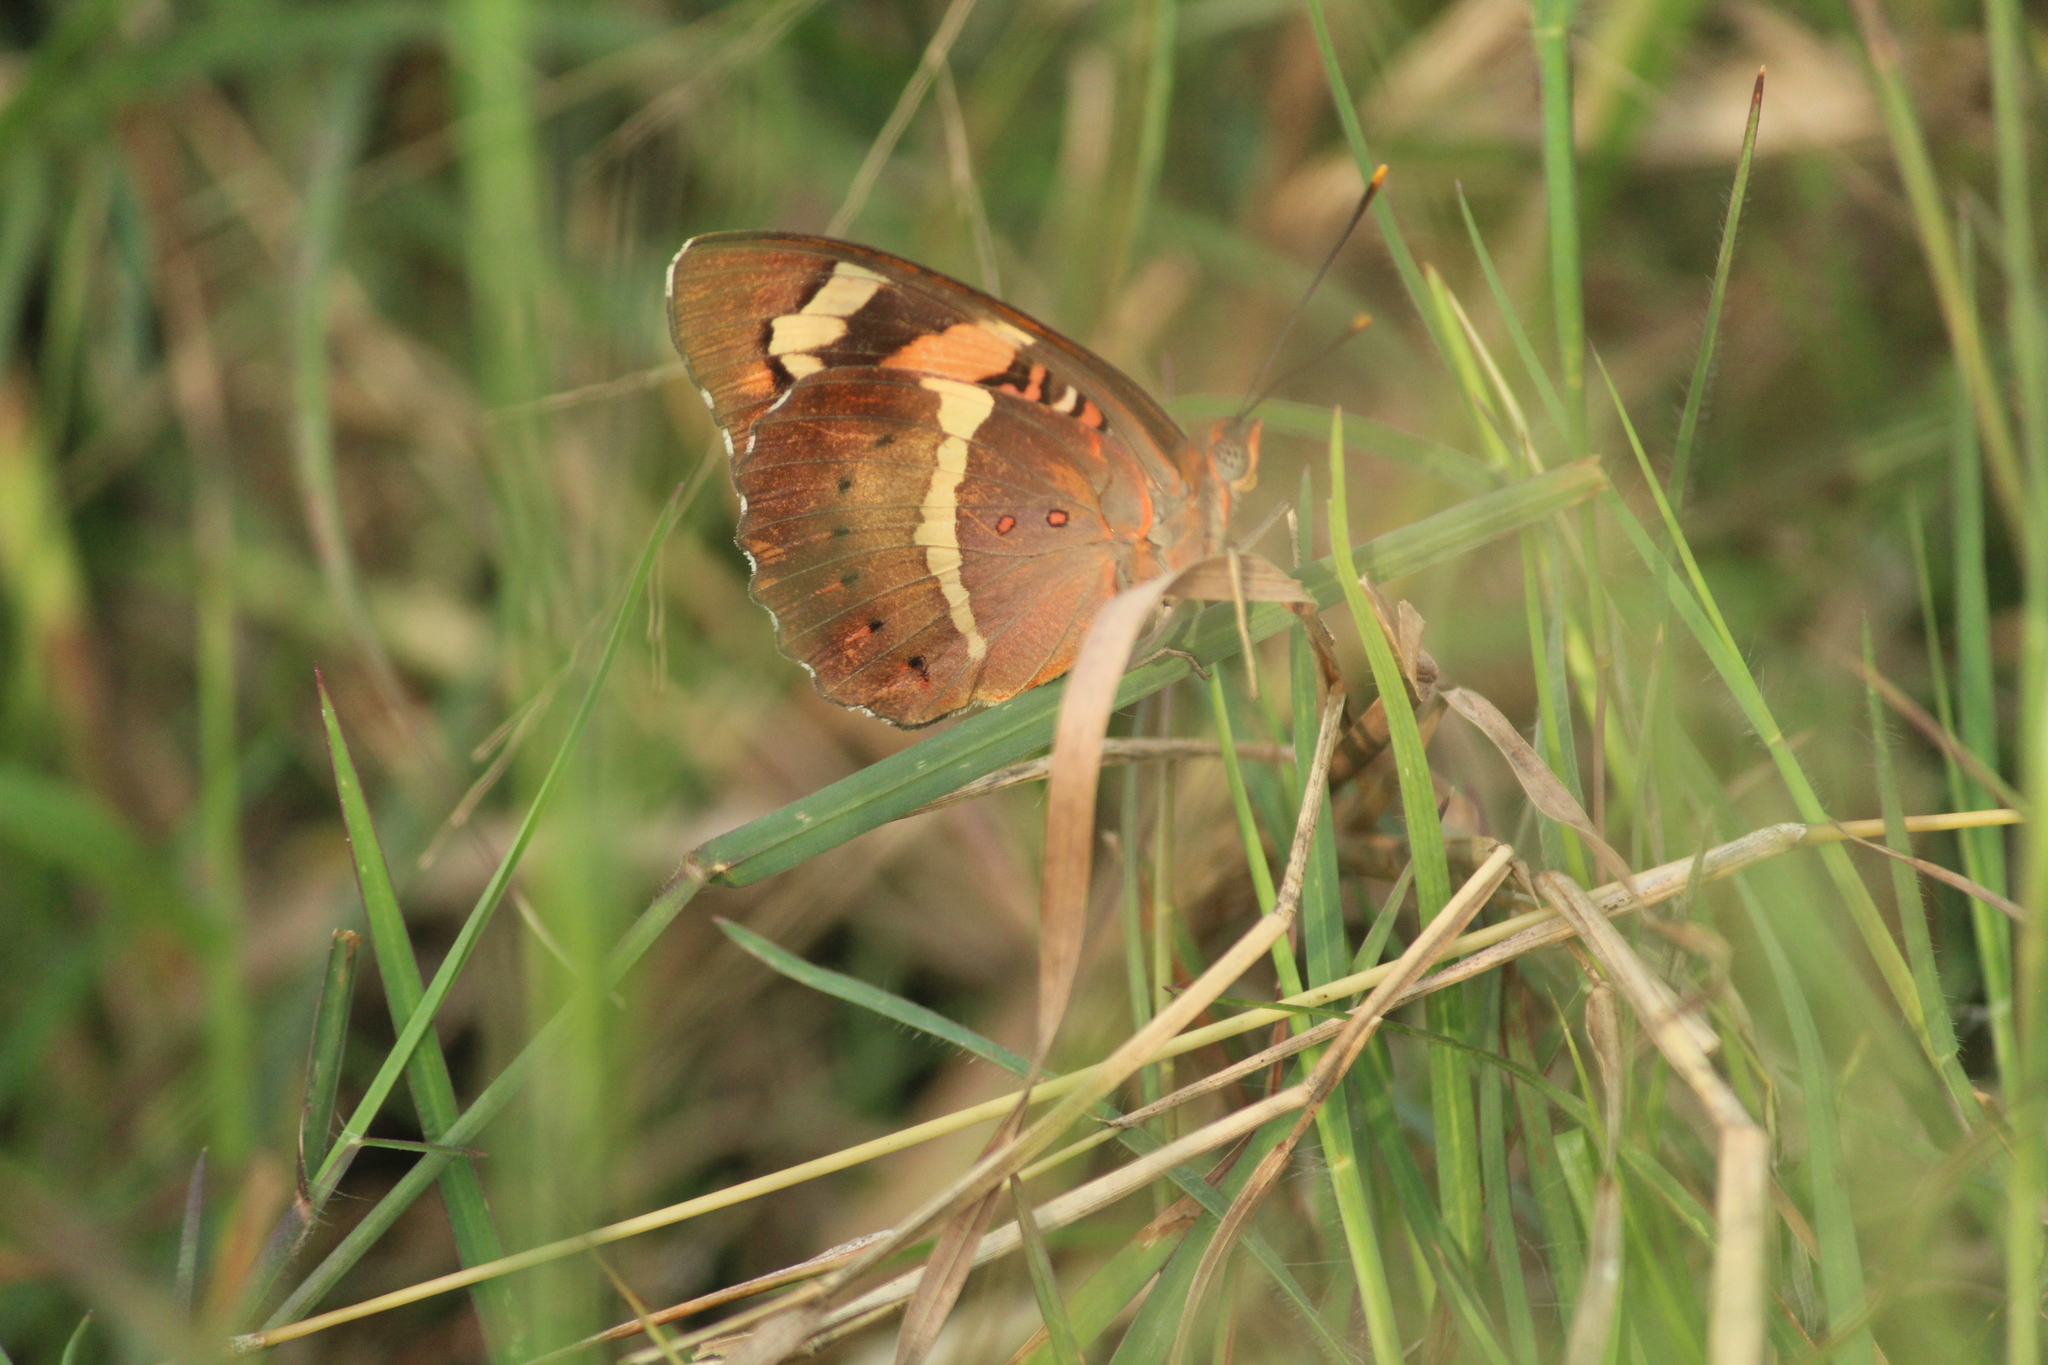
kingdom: Animalia
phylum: Arthropoda
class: Insecta
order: Lepidoptera
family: Nymphalidae
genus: Euthalia
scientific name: Euthalia nais
